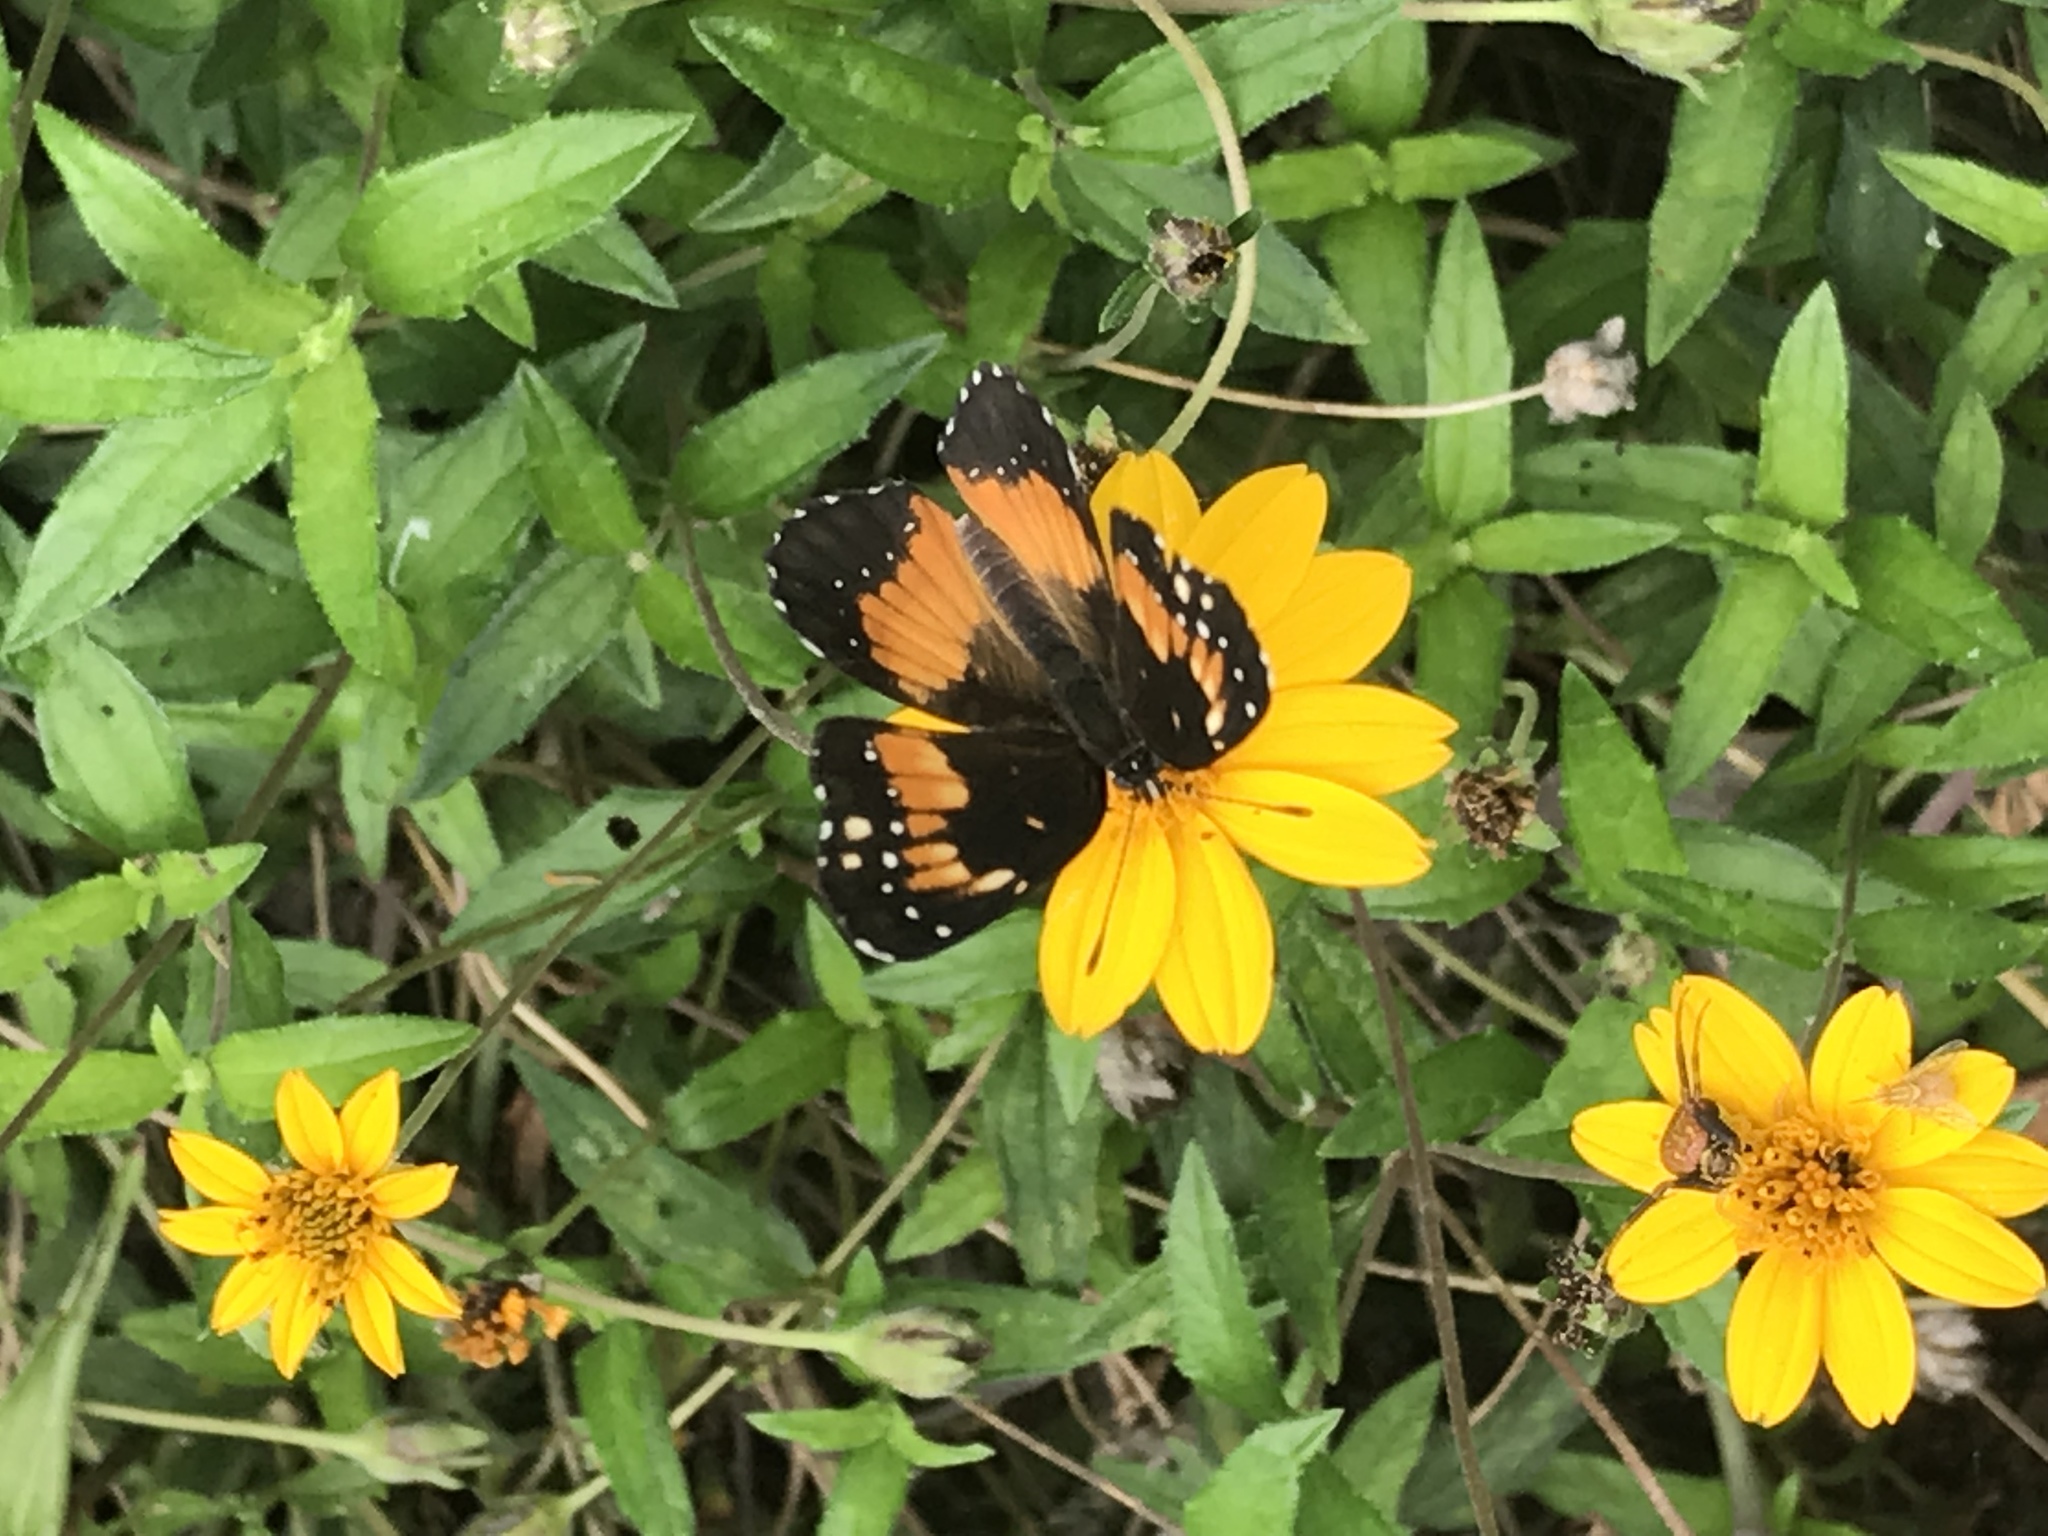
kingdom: Animalia
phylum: Arthropoda
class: Insecta
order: Lepidoptera
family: Nymphalidae
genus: Chlosyne
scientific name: Chlosyne lacinia
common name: Bordered patch
